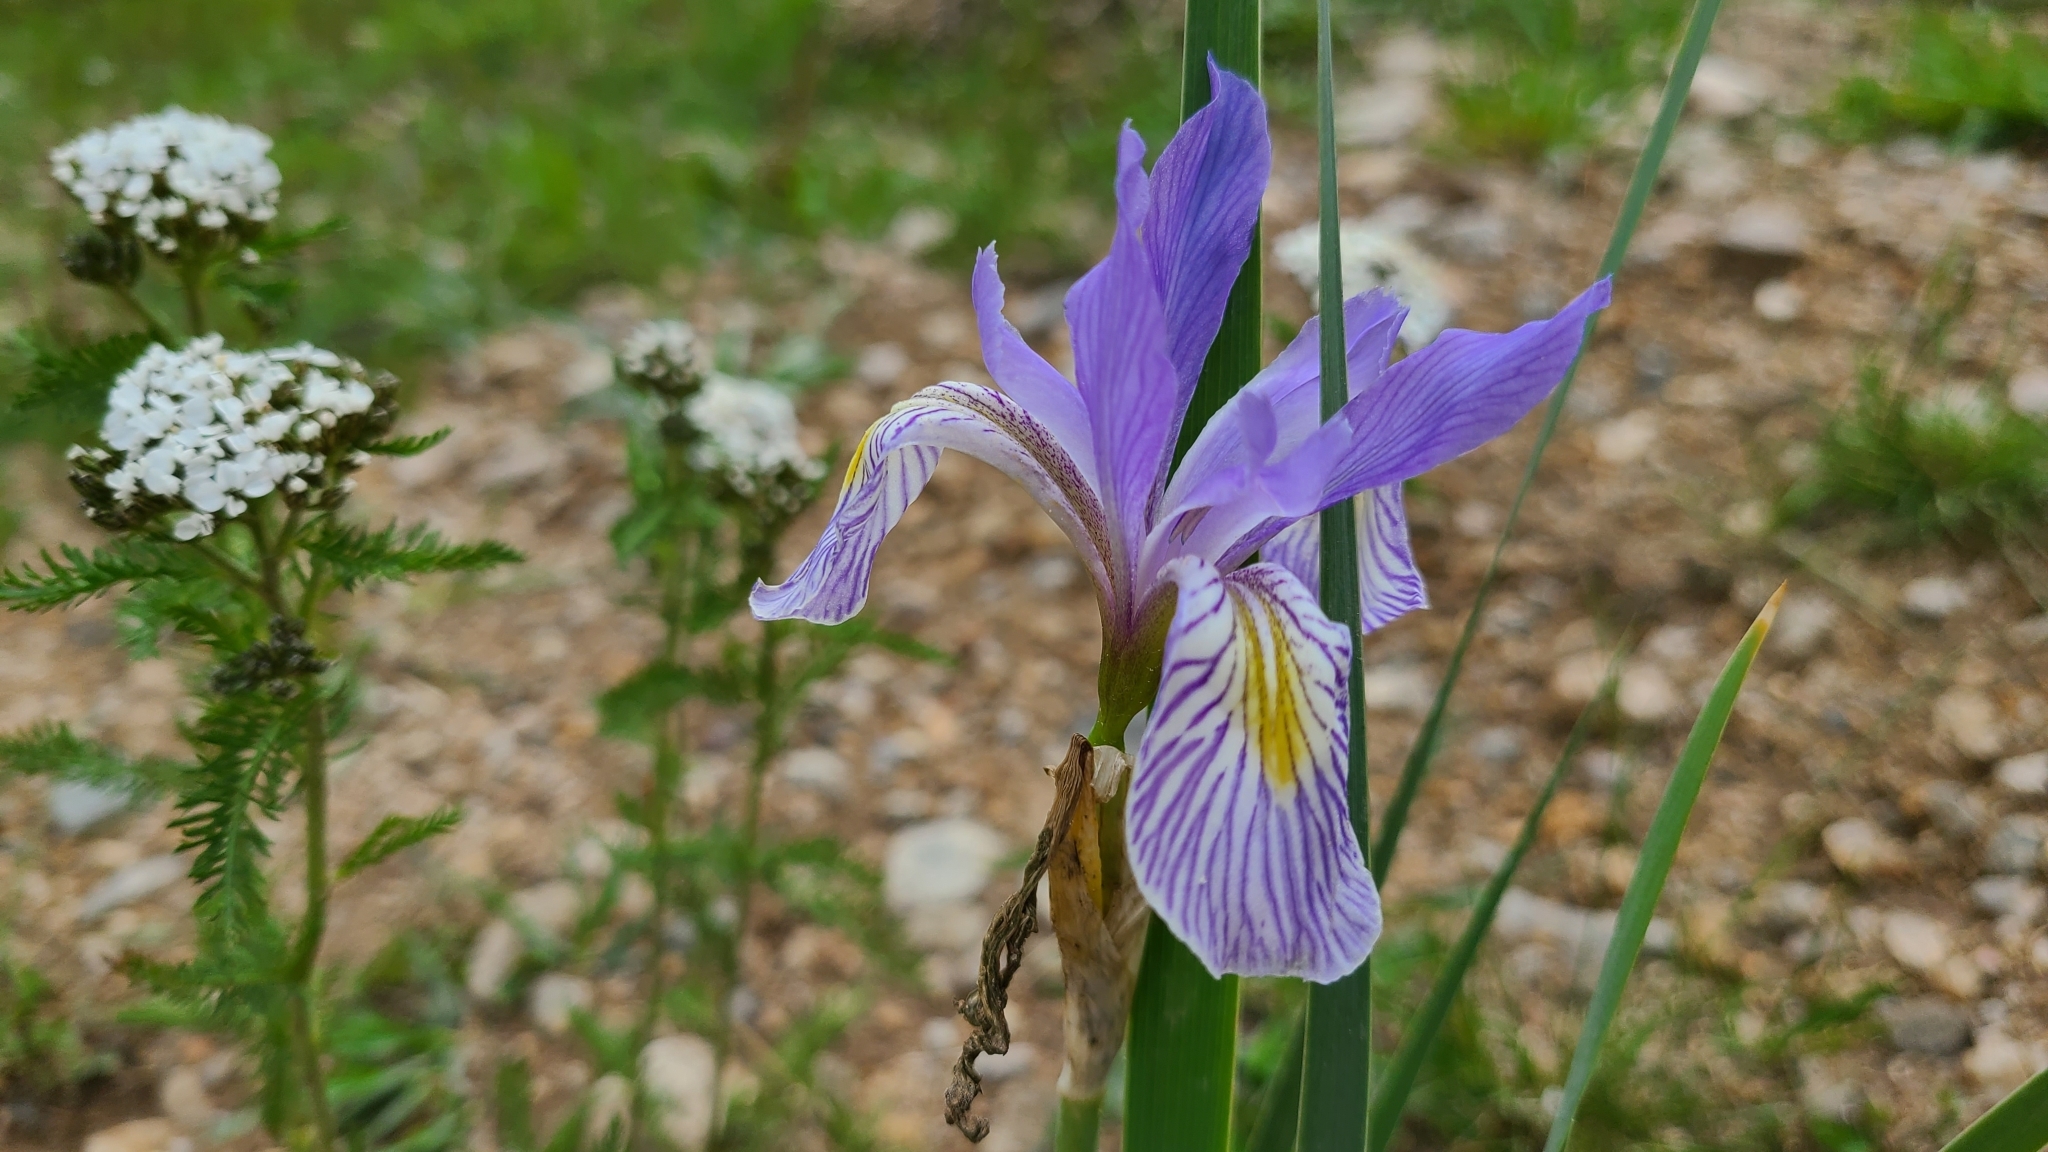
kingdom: Plantae
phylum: Tracheophyta
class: Liliopsida
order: Asparagales
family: Iridaceae
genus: Iris
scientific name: Iris missouriensis
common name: Rocky mountain iris
